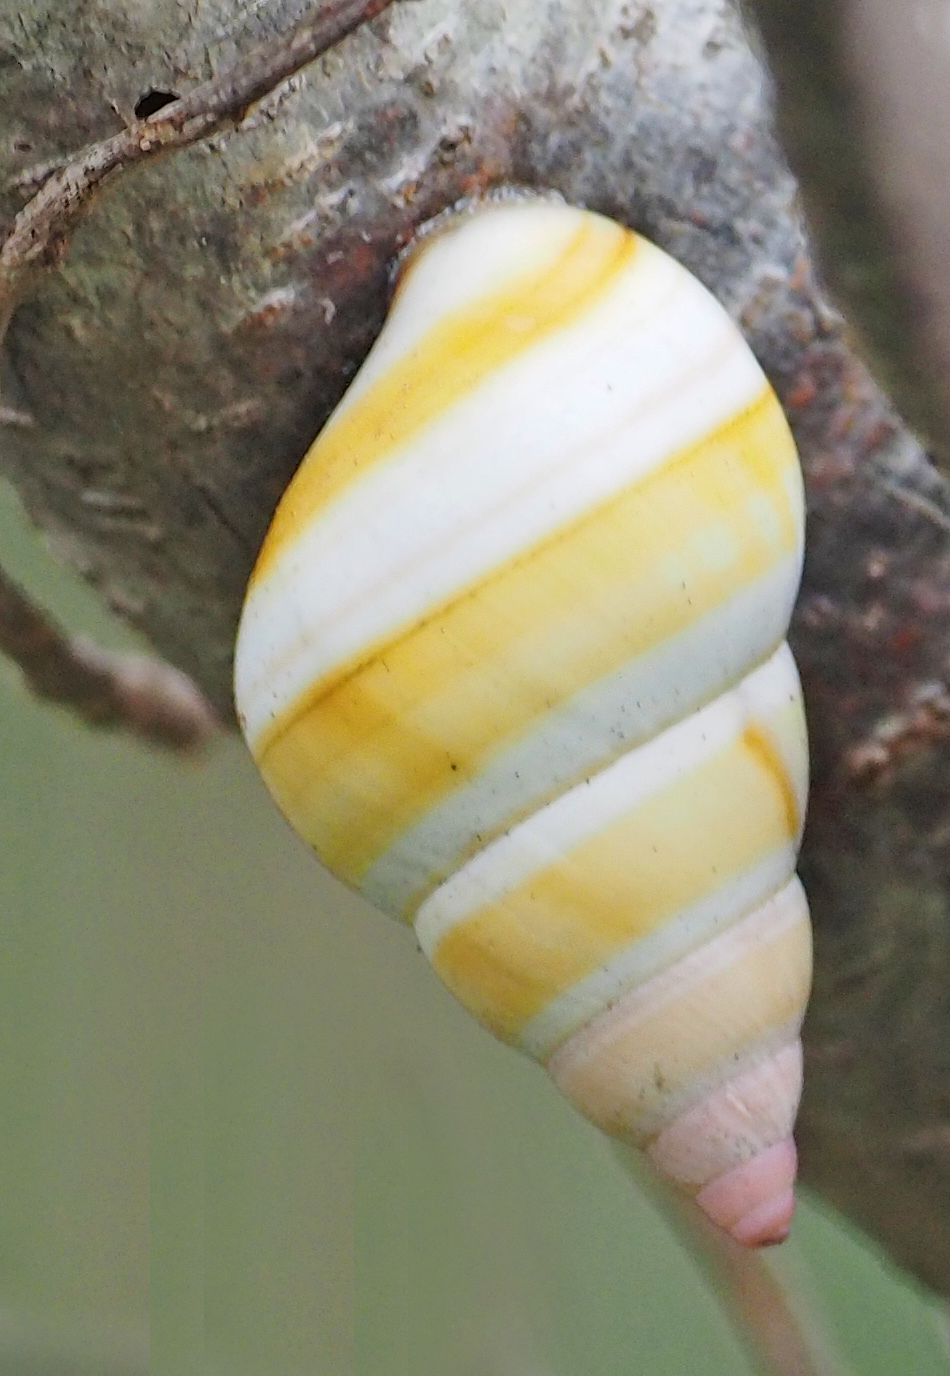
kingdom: Animalia
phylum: Mollusca
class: Gastropoda
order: Stylommatophora
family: Orthalicidae
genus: Liguus
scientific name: Liguus fasciatus
